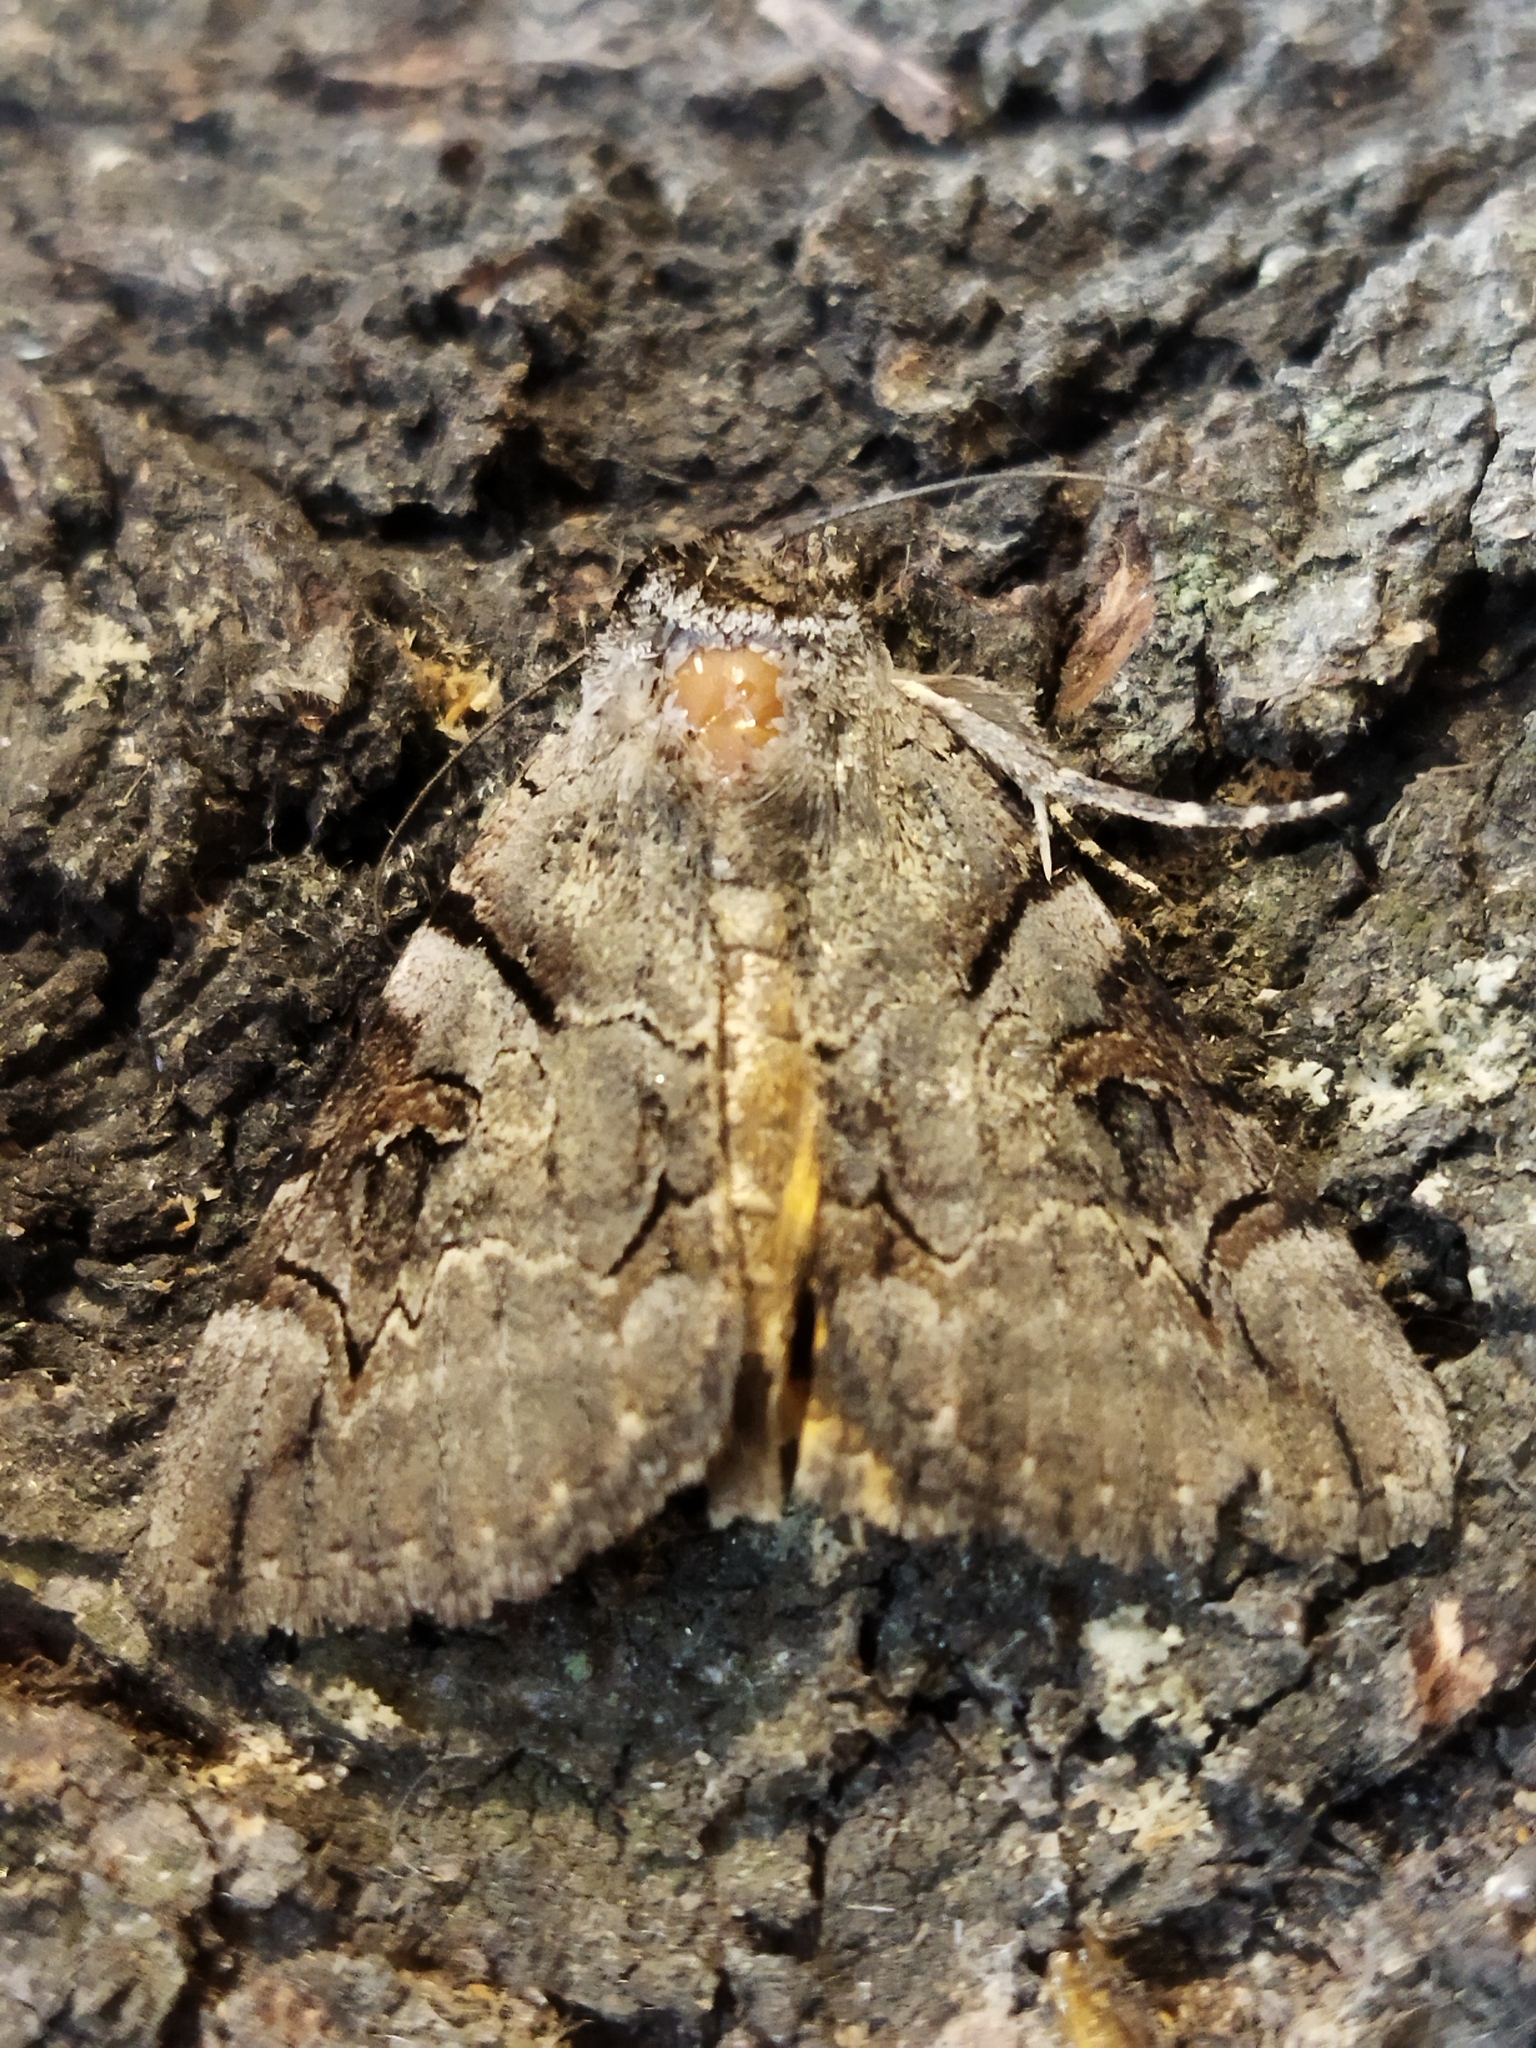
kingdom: Animalia
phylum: Arthropoda
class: Insecta
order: Lepidoptera
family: Erebidae
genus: Catocala
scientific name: Catocala hymenaea
